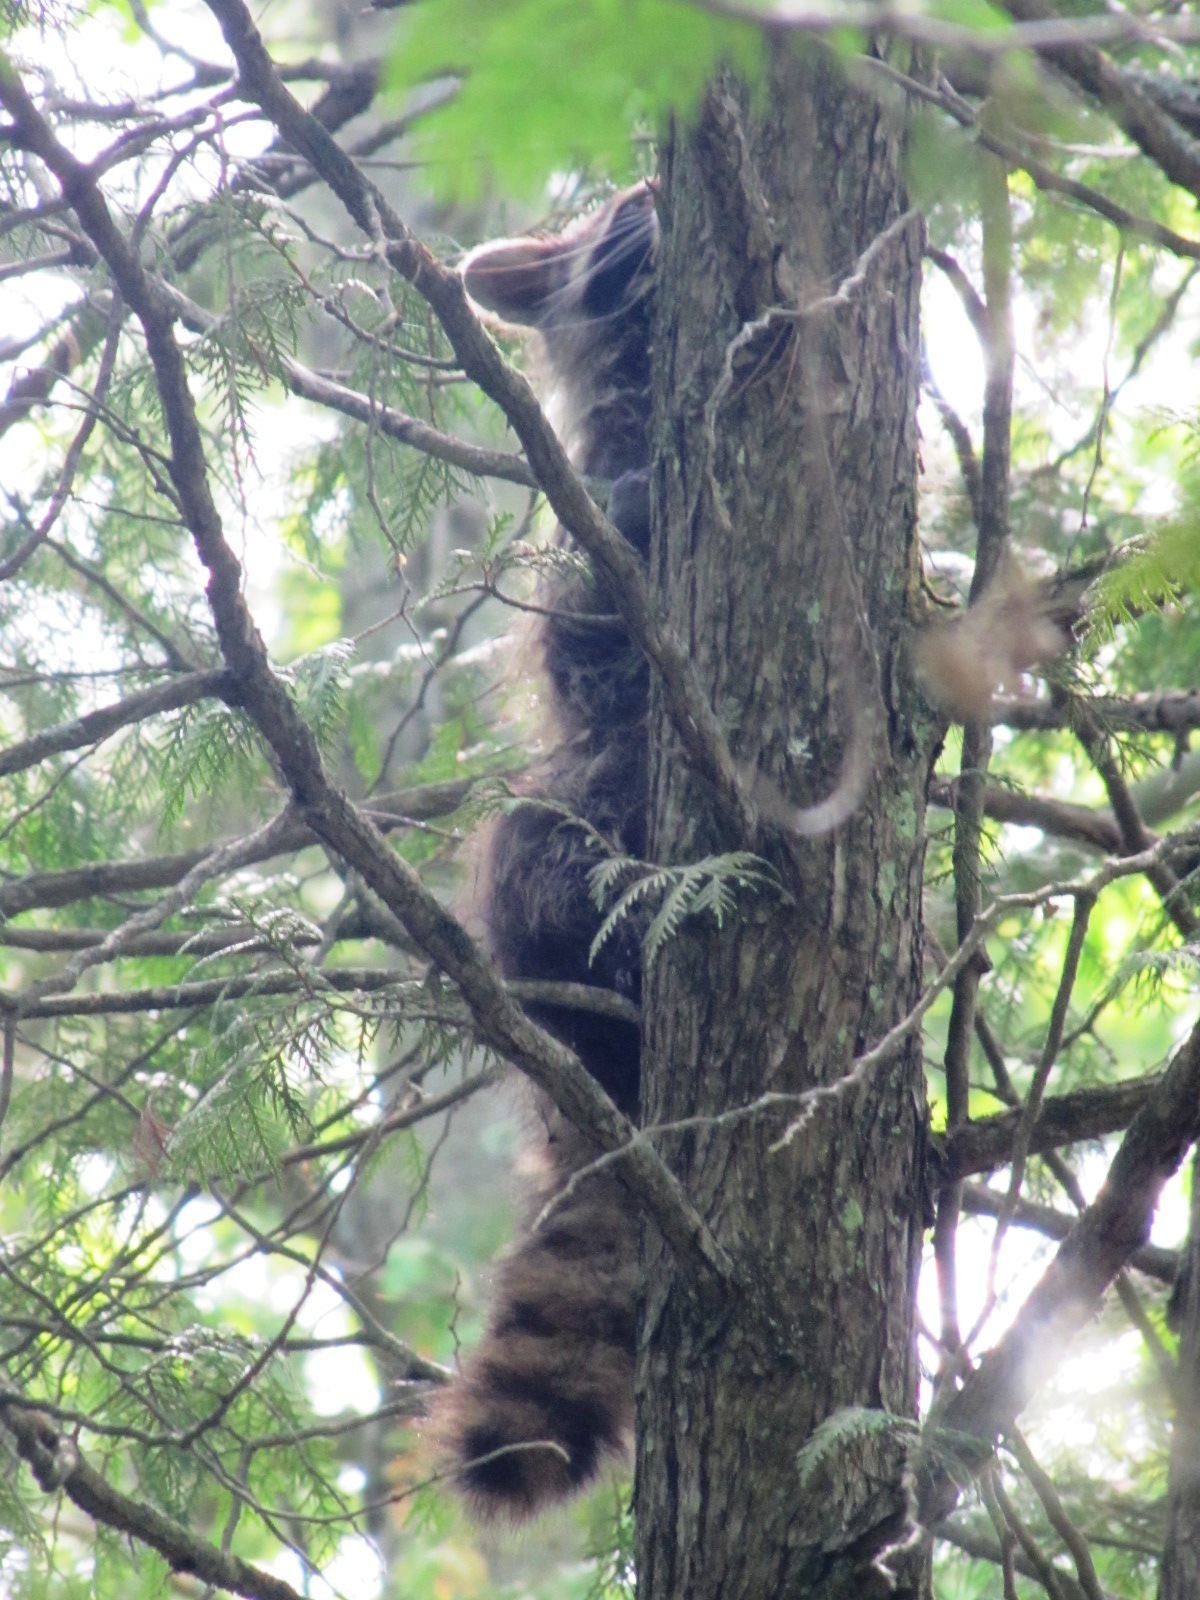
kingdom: Animalia
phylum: Chordata
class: Mammalia
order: Carnivora
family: Procyonidae
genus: Procyon
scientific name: Procyon lotor
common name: Raccoon
